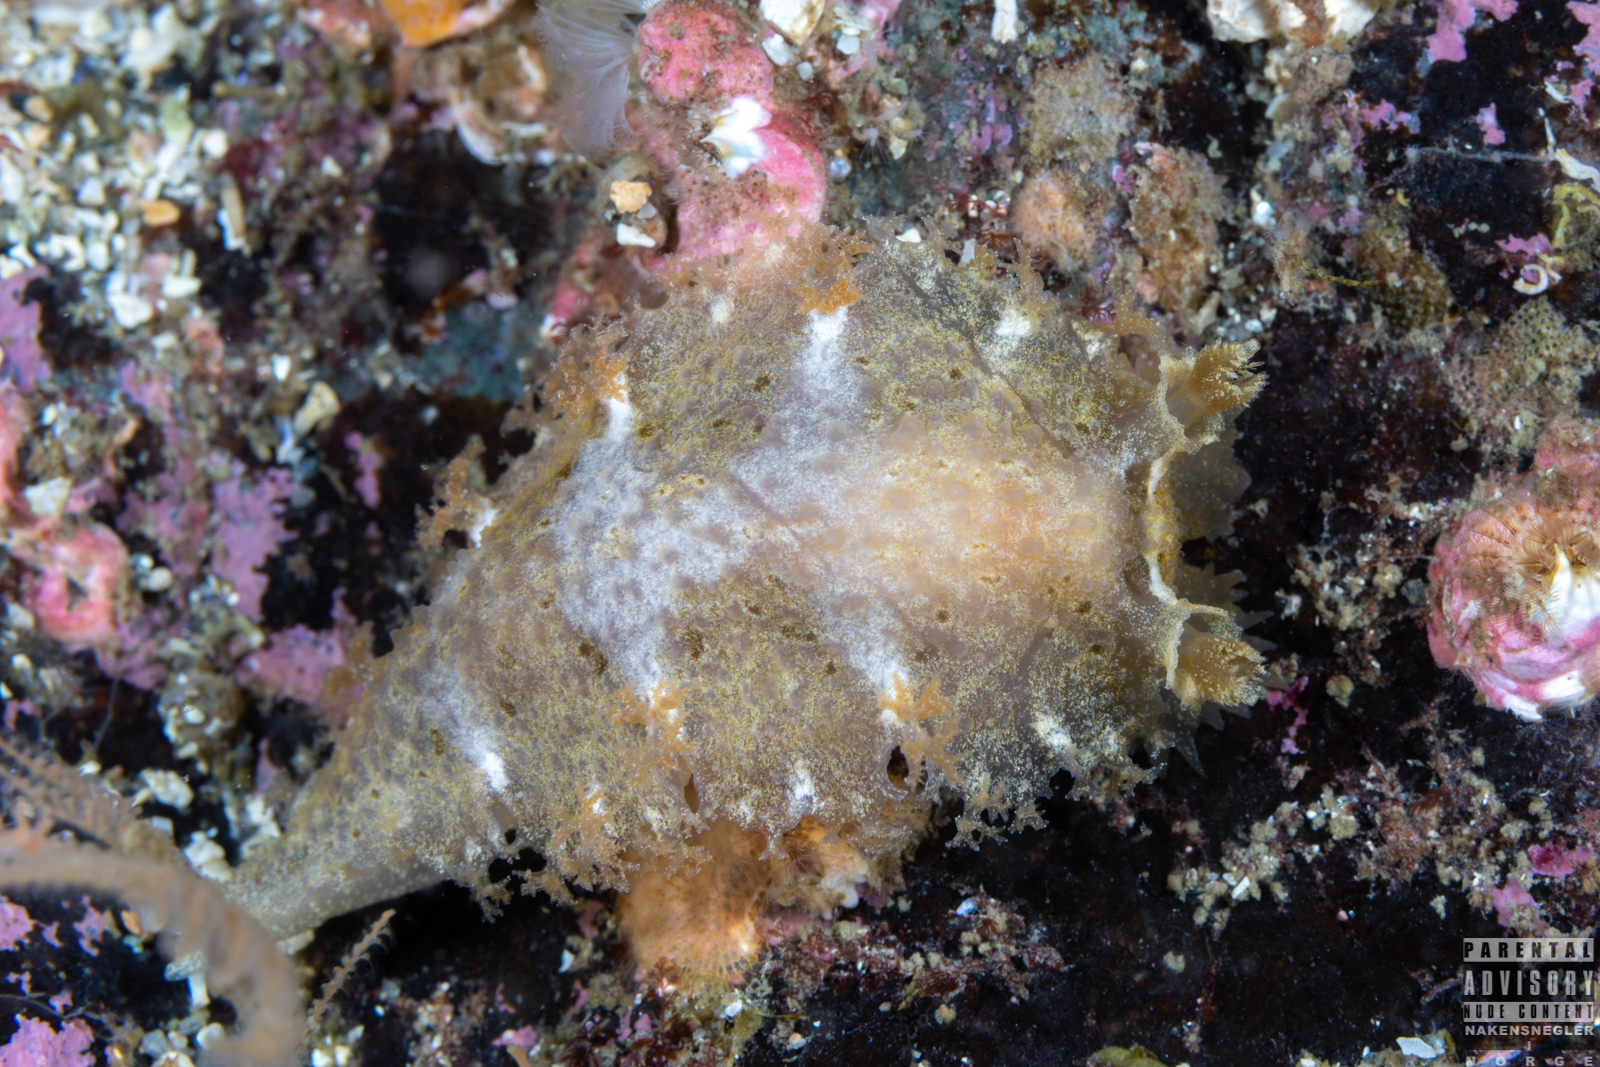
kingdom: Animalia
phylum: Mollusca
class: Gastropoda
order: Nudibranchia
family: Tritoniidae
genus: Tritonia
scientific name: Tritonia hombergii
